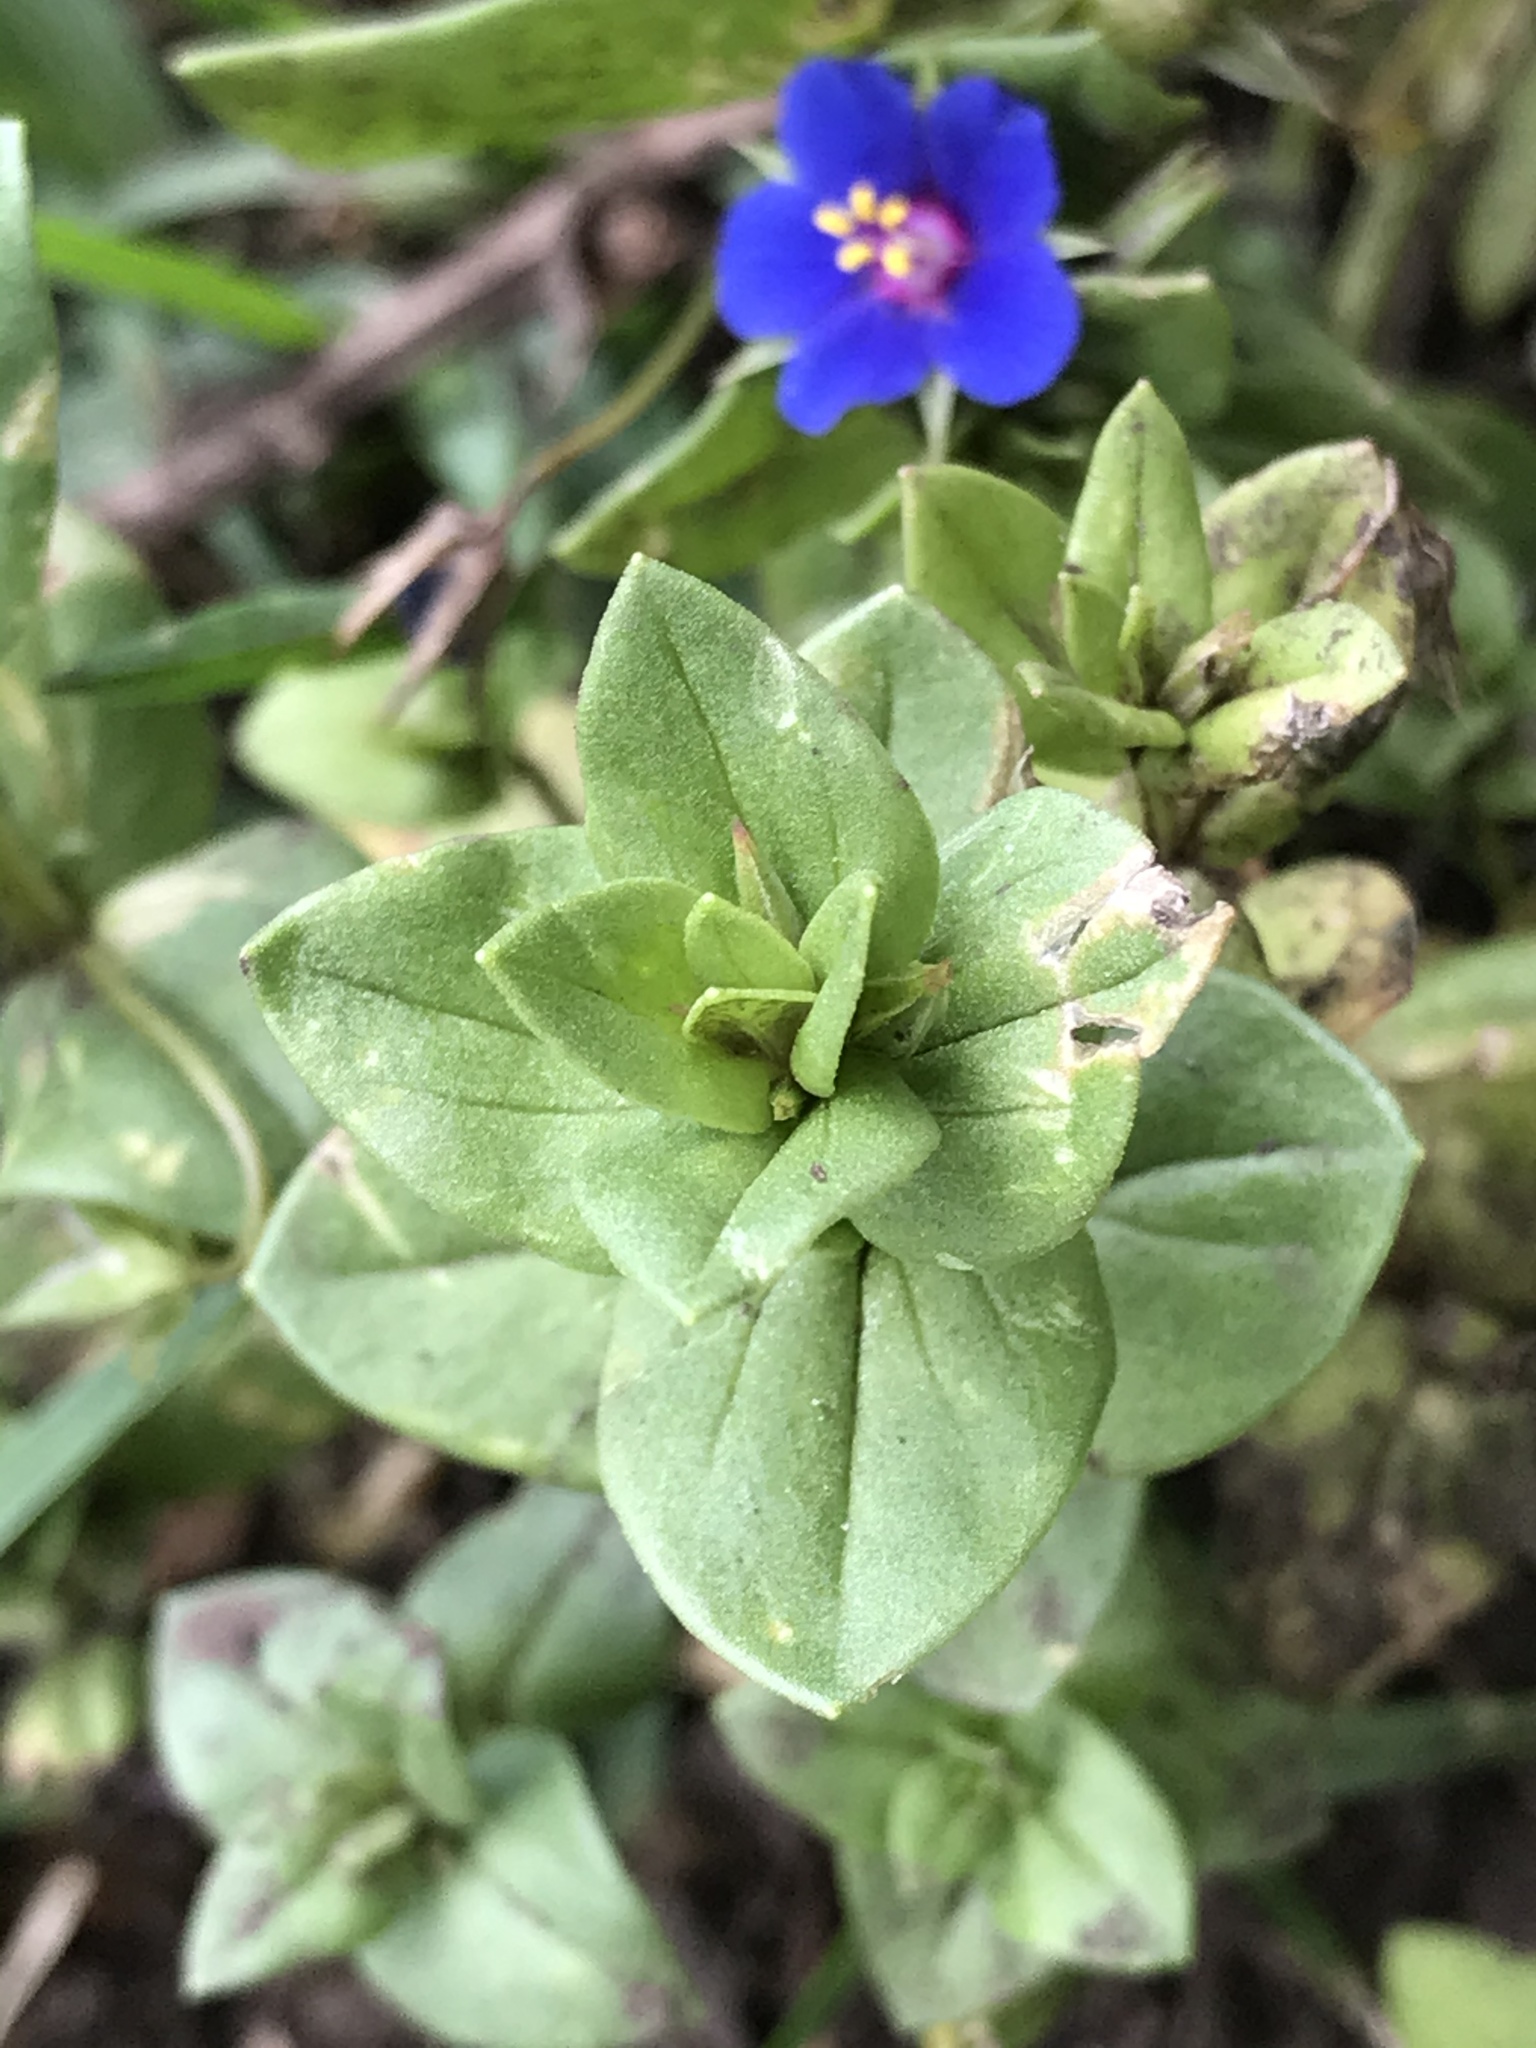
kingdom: Plantae
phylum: Tracheophyta
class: Magnoliopsida
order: Ericales
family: Primulaceae
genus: Lysimachia
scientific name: Lysimachia arvensis
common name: Scarlet pimpernel
